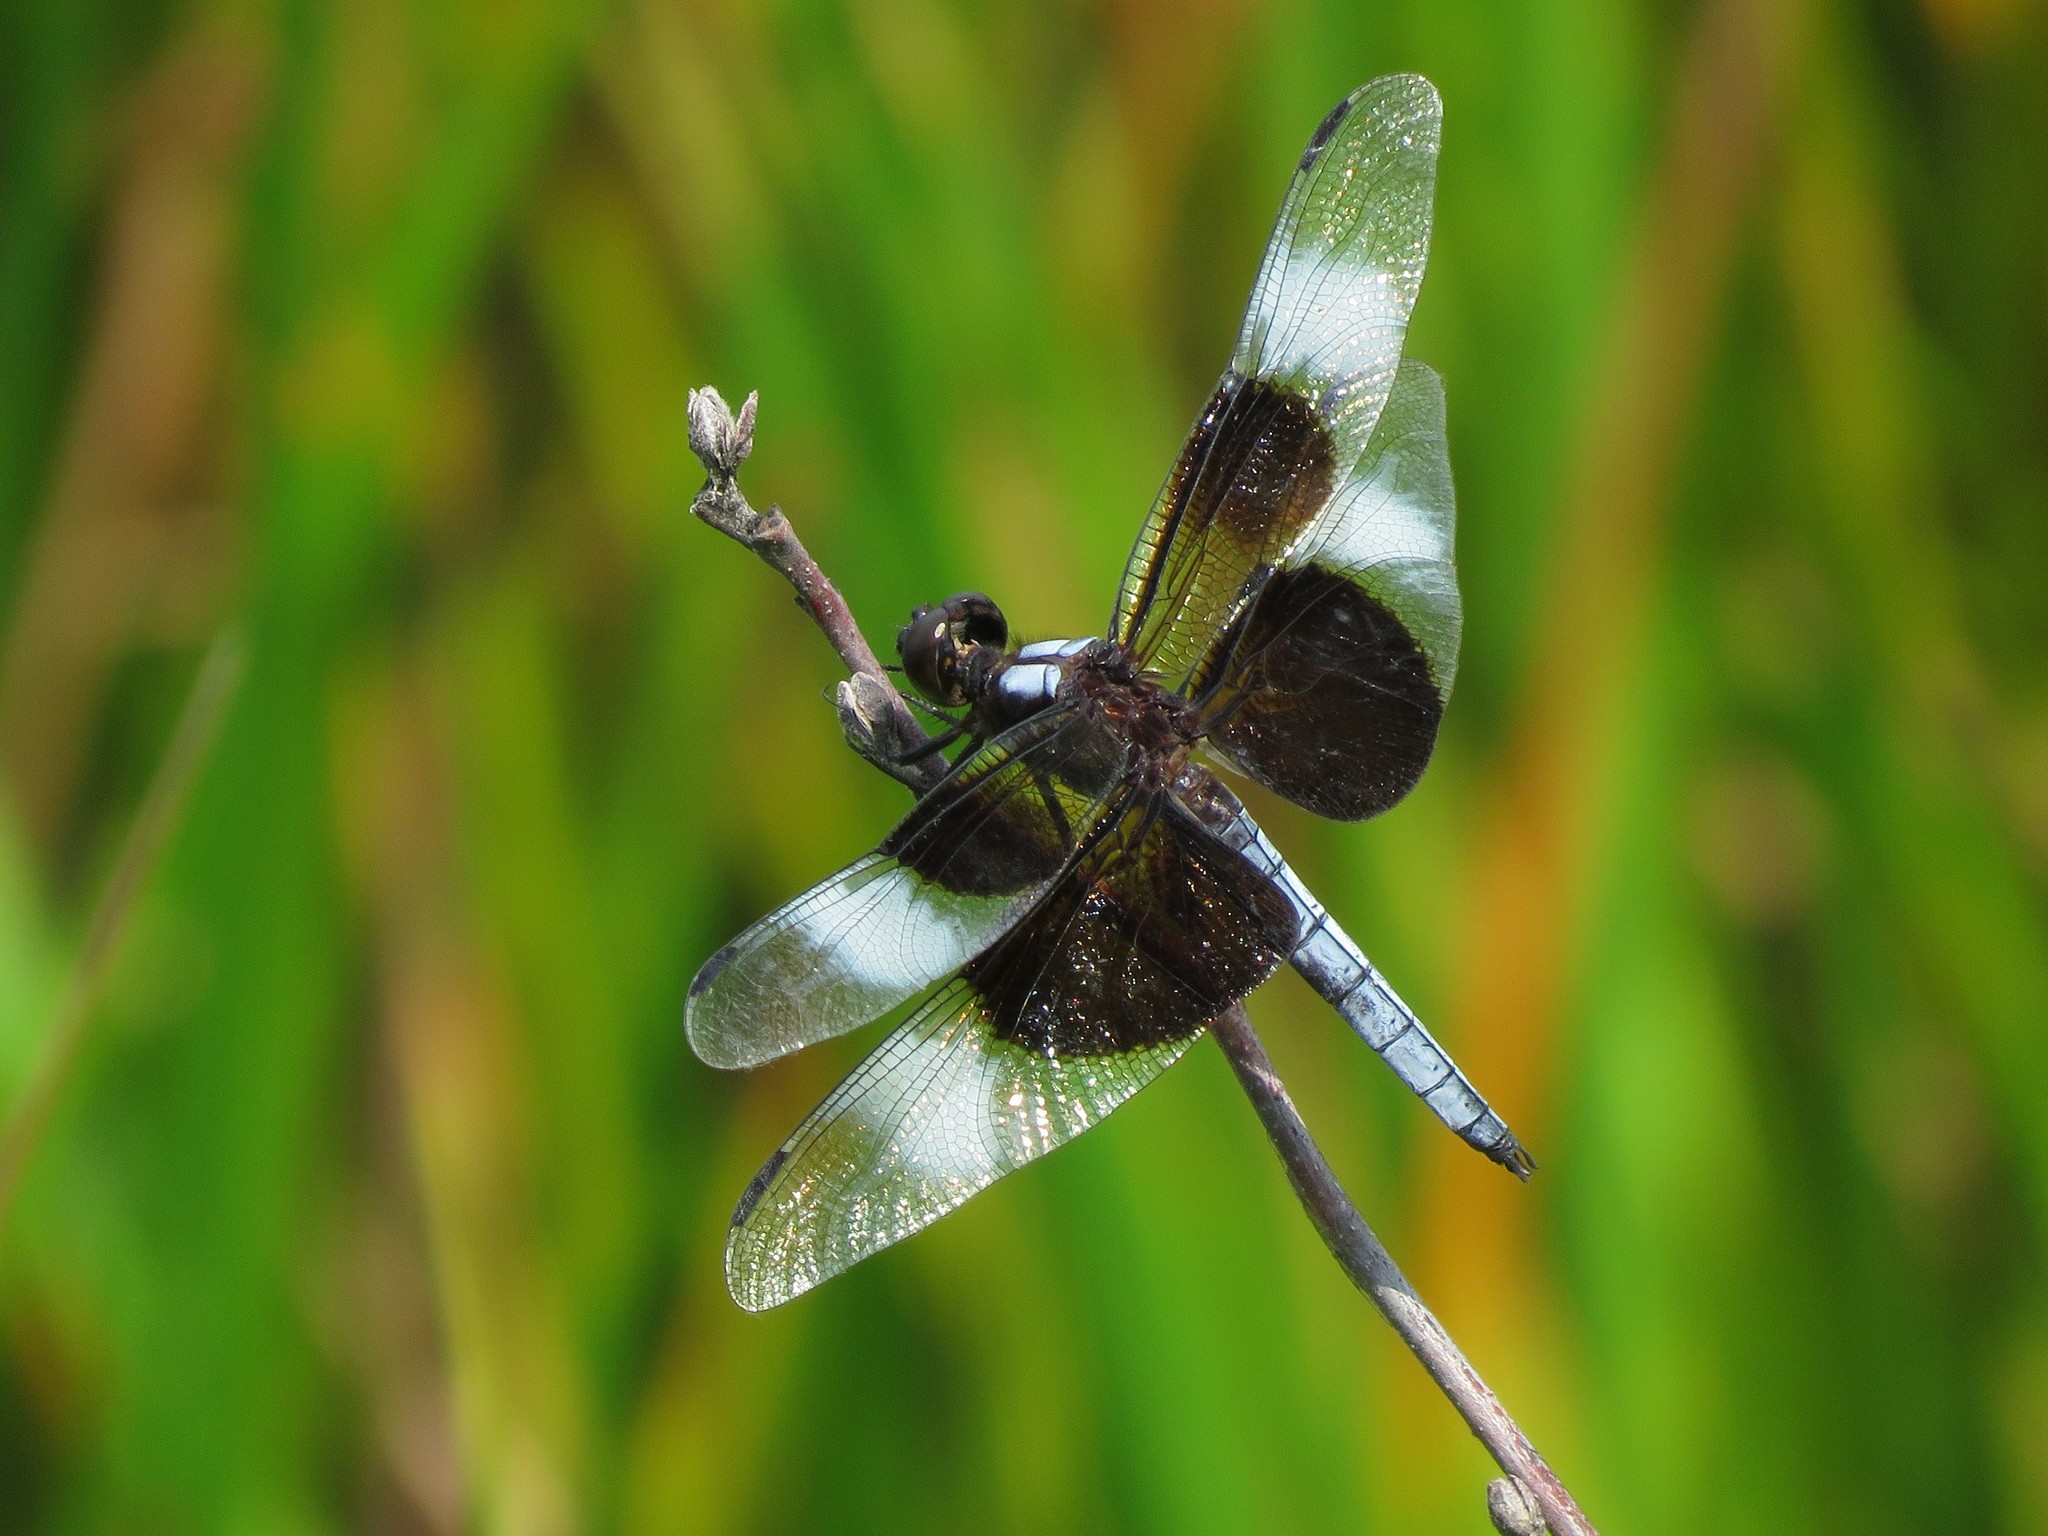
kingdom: Animalia
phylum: Arthropoda
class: Insecta
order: Odonata
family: Libellulidae
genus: Libellula
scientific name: Libellula luctuosa
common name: Widow skimmer
